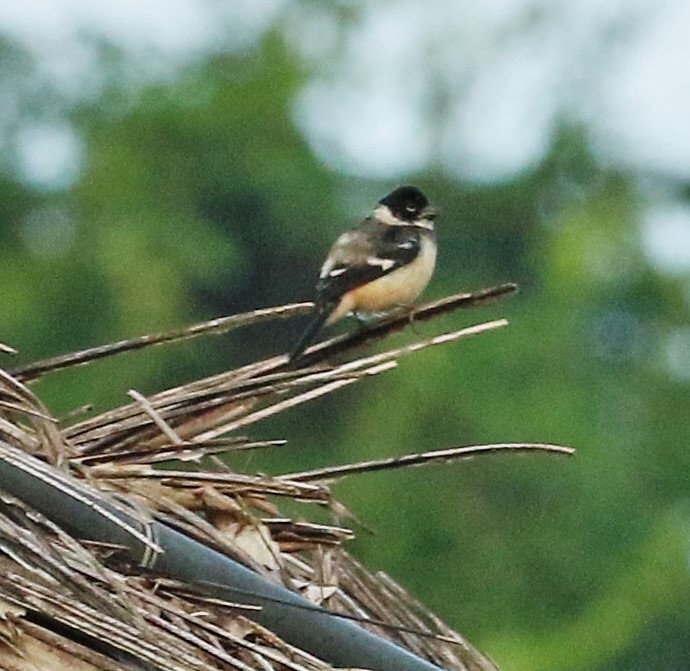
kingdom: Animalia
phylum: Chordata
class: Aves
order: Passeriformes
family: Thraupidae
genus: Sporophila
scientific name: Sporophila morelleti
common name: Morelet's seedeater
